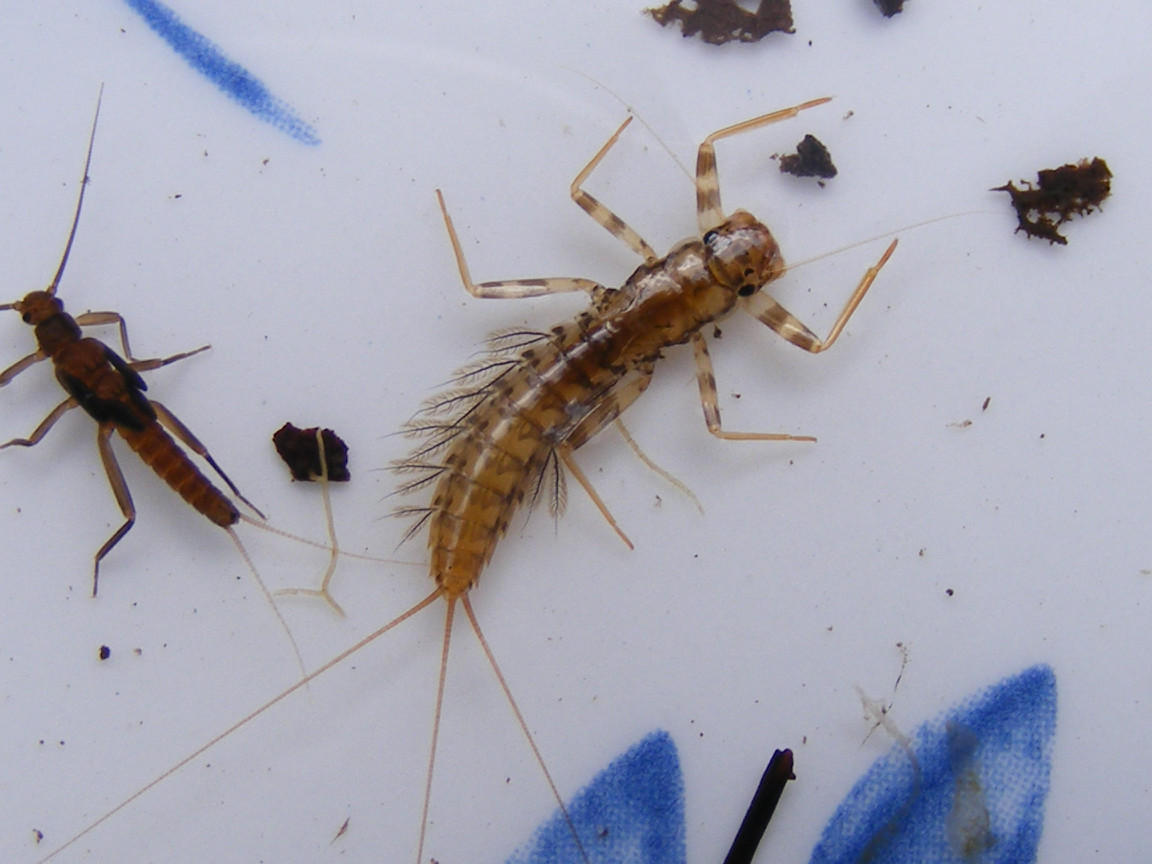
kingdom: Animalia
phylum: Arthropoda
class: Insecta
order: Ephemeroptera
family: Leptophlebiidae
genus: Aprionyx
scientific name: Aprionyx peterseni
